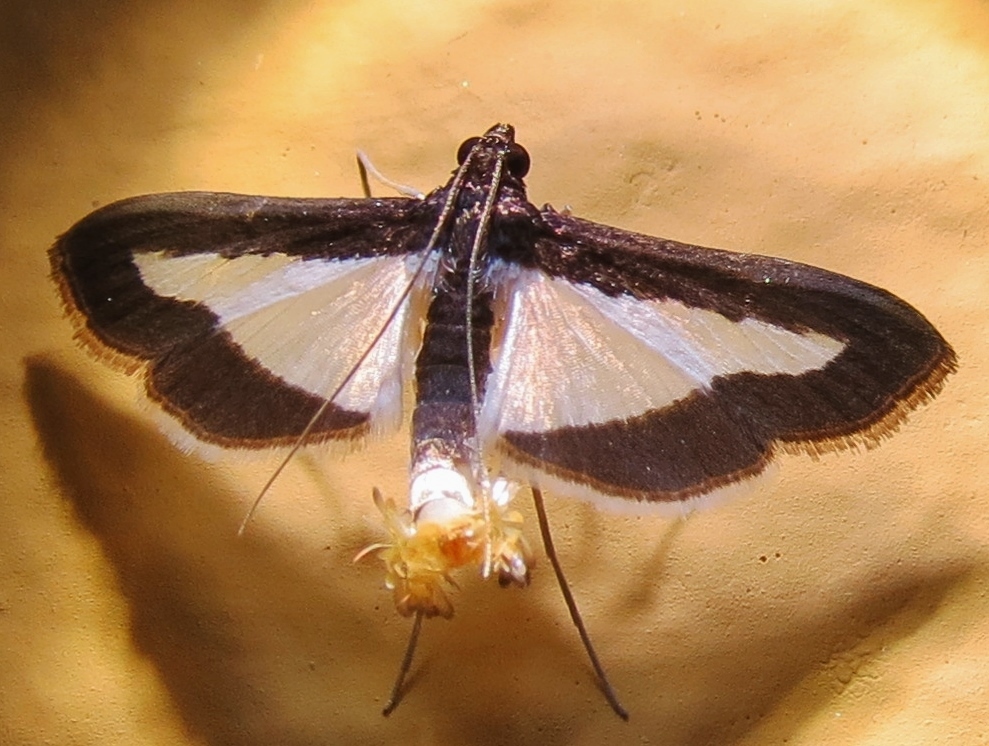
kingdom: Animalia
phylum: Arthropoda
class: Insecta
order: Lepidoptera
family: Crambidae
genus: Cryptographis
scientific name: Cryptographis infimalis
